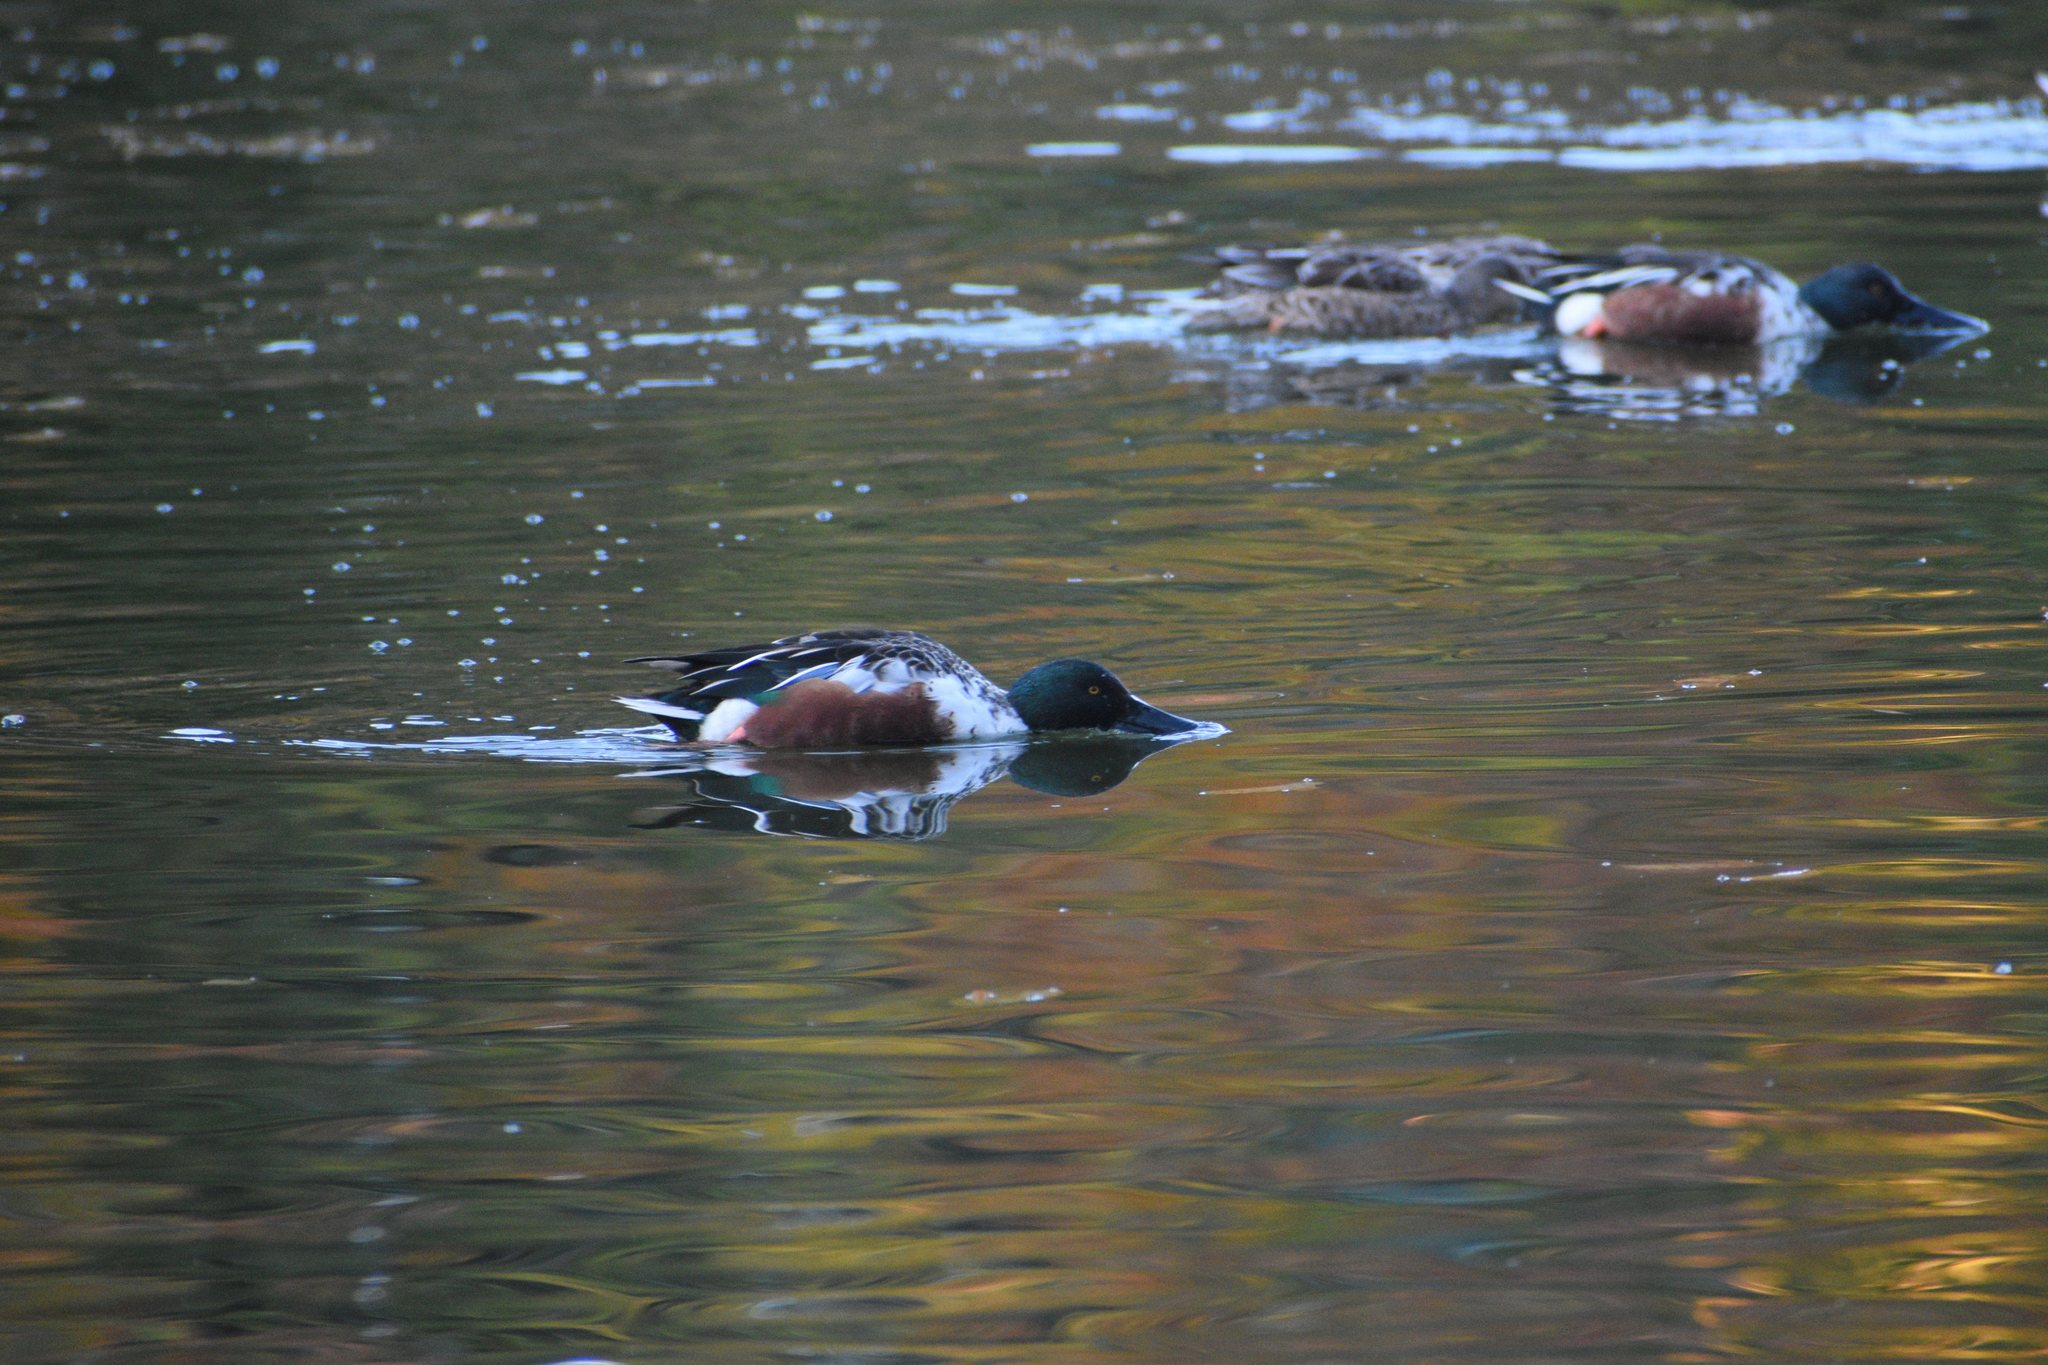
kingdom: Animalia
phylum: Chordata
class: Aves
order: Anseriformes
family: Anatidae
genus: Spatula
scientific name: Spatula clypeata
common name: Northern shoveler
